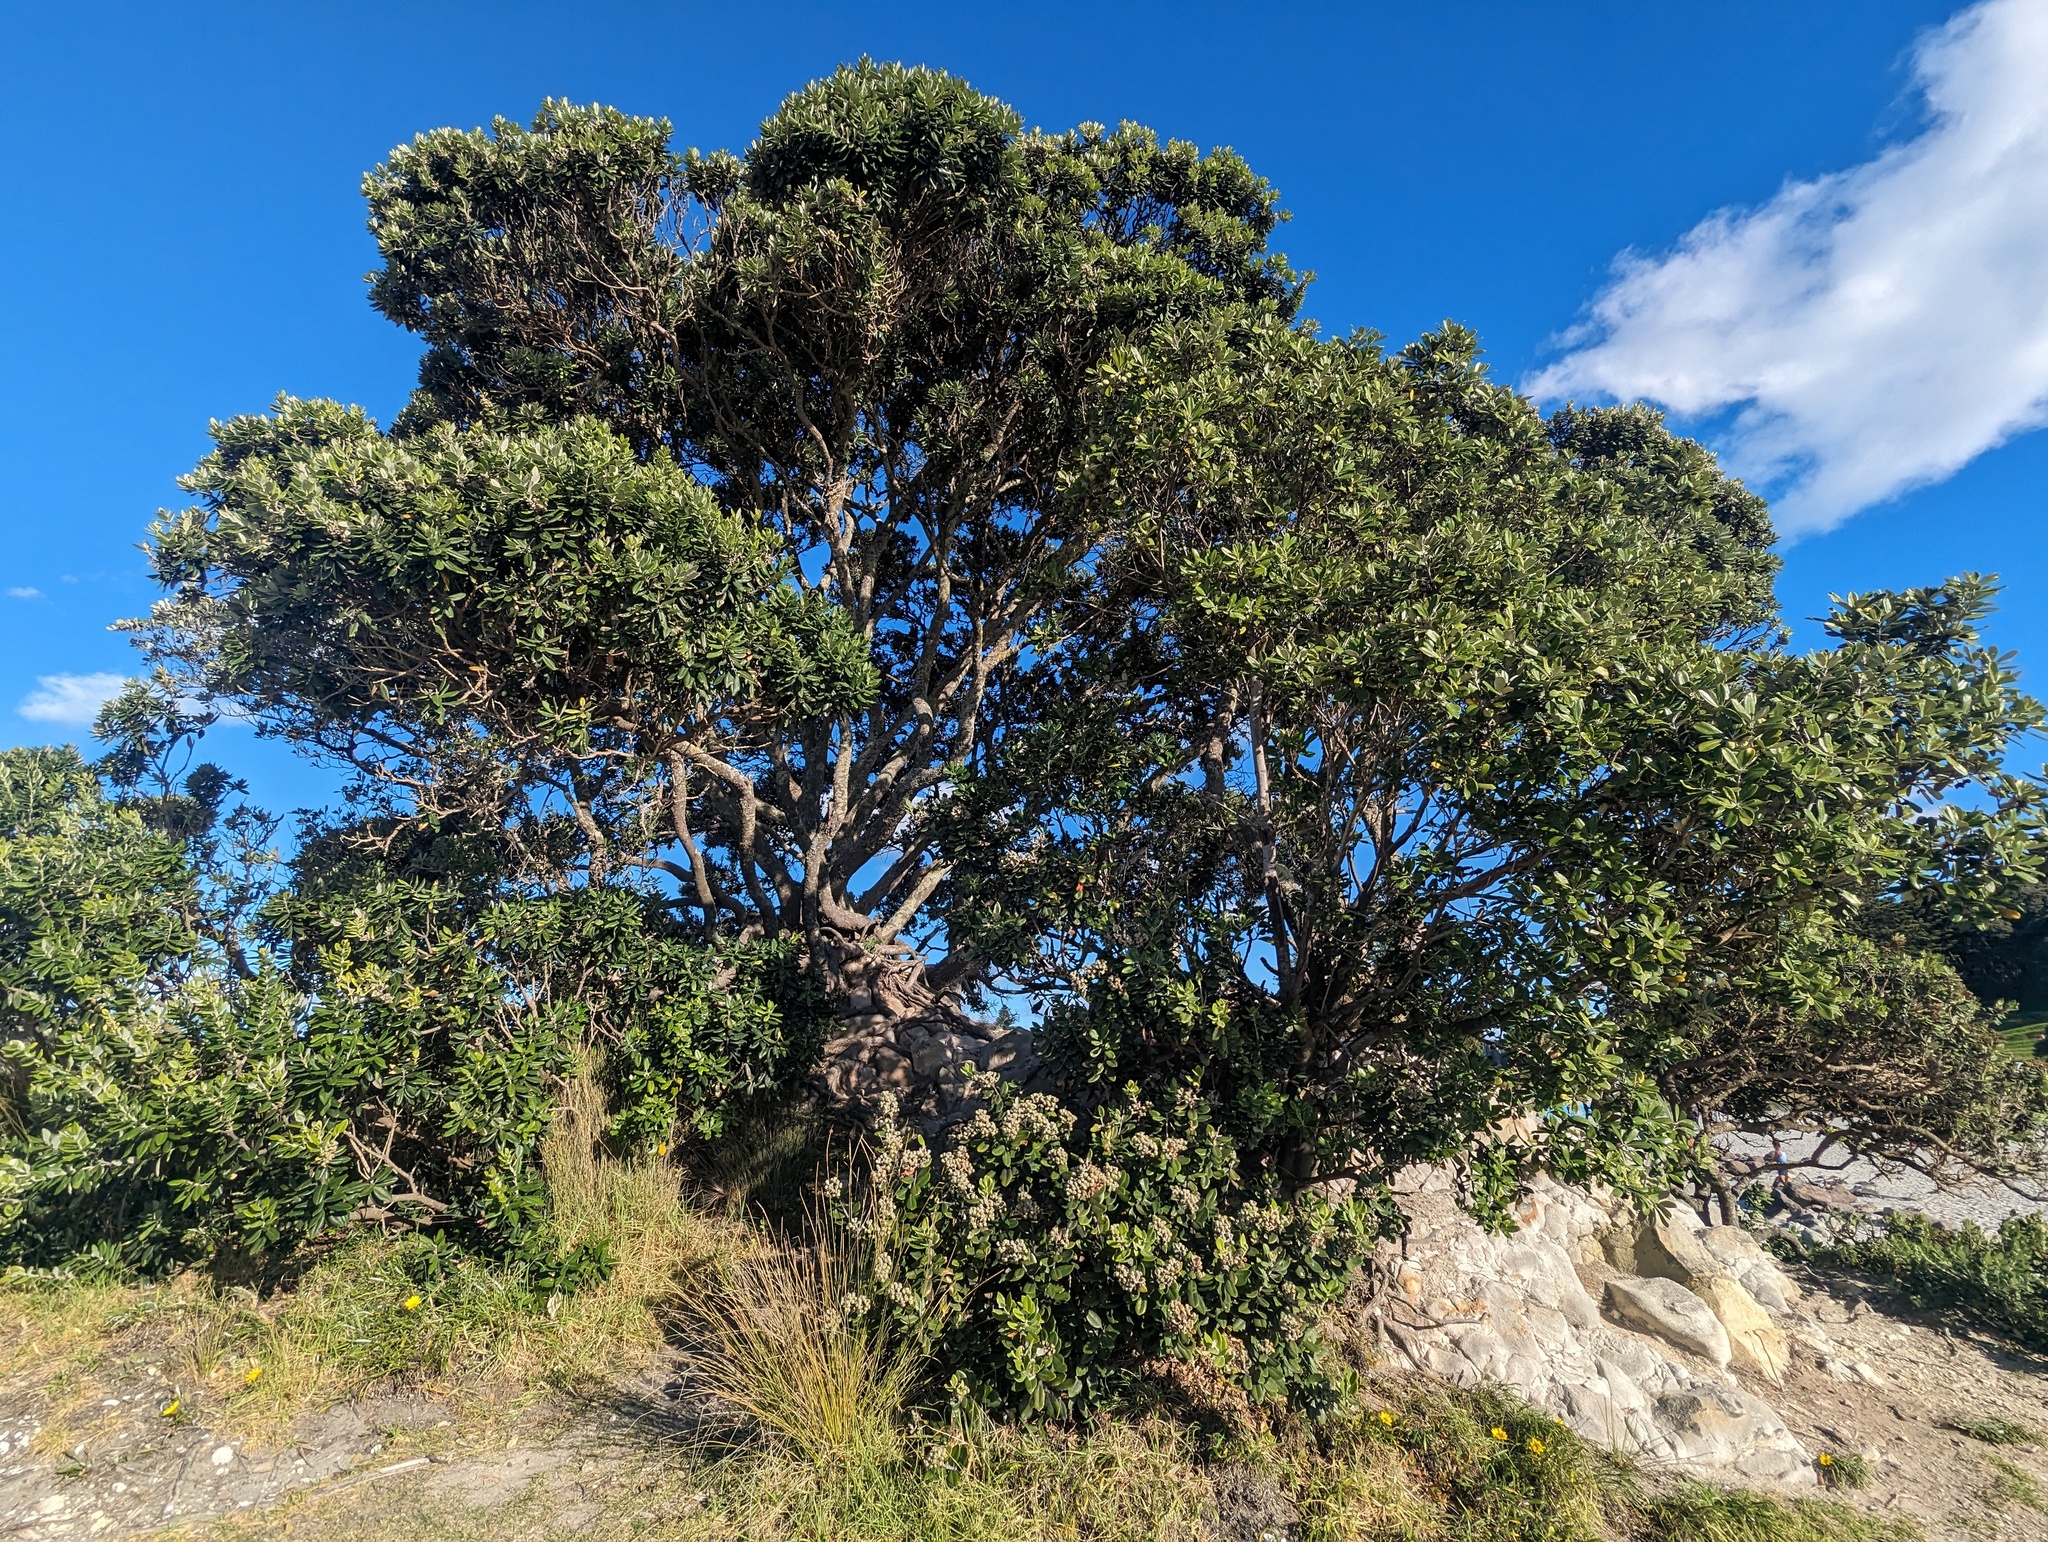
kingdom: Plantae
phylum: Tracheophyta
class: Magnoliopsida
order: Myrtales
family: Myrtaceae
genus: Metrosideros
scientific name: Metrosideros excelsa
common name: New zealand christmastree
